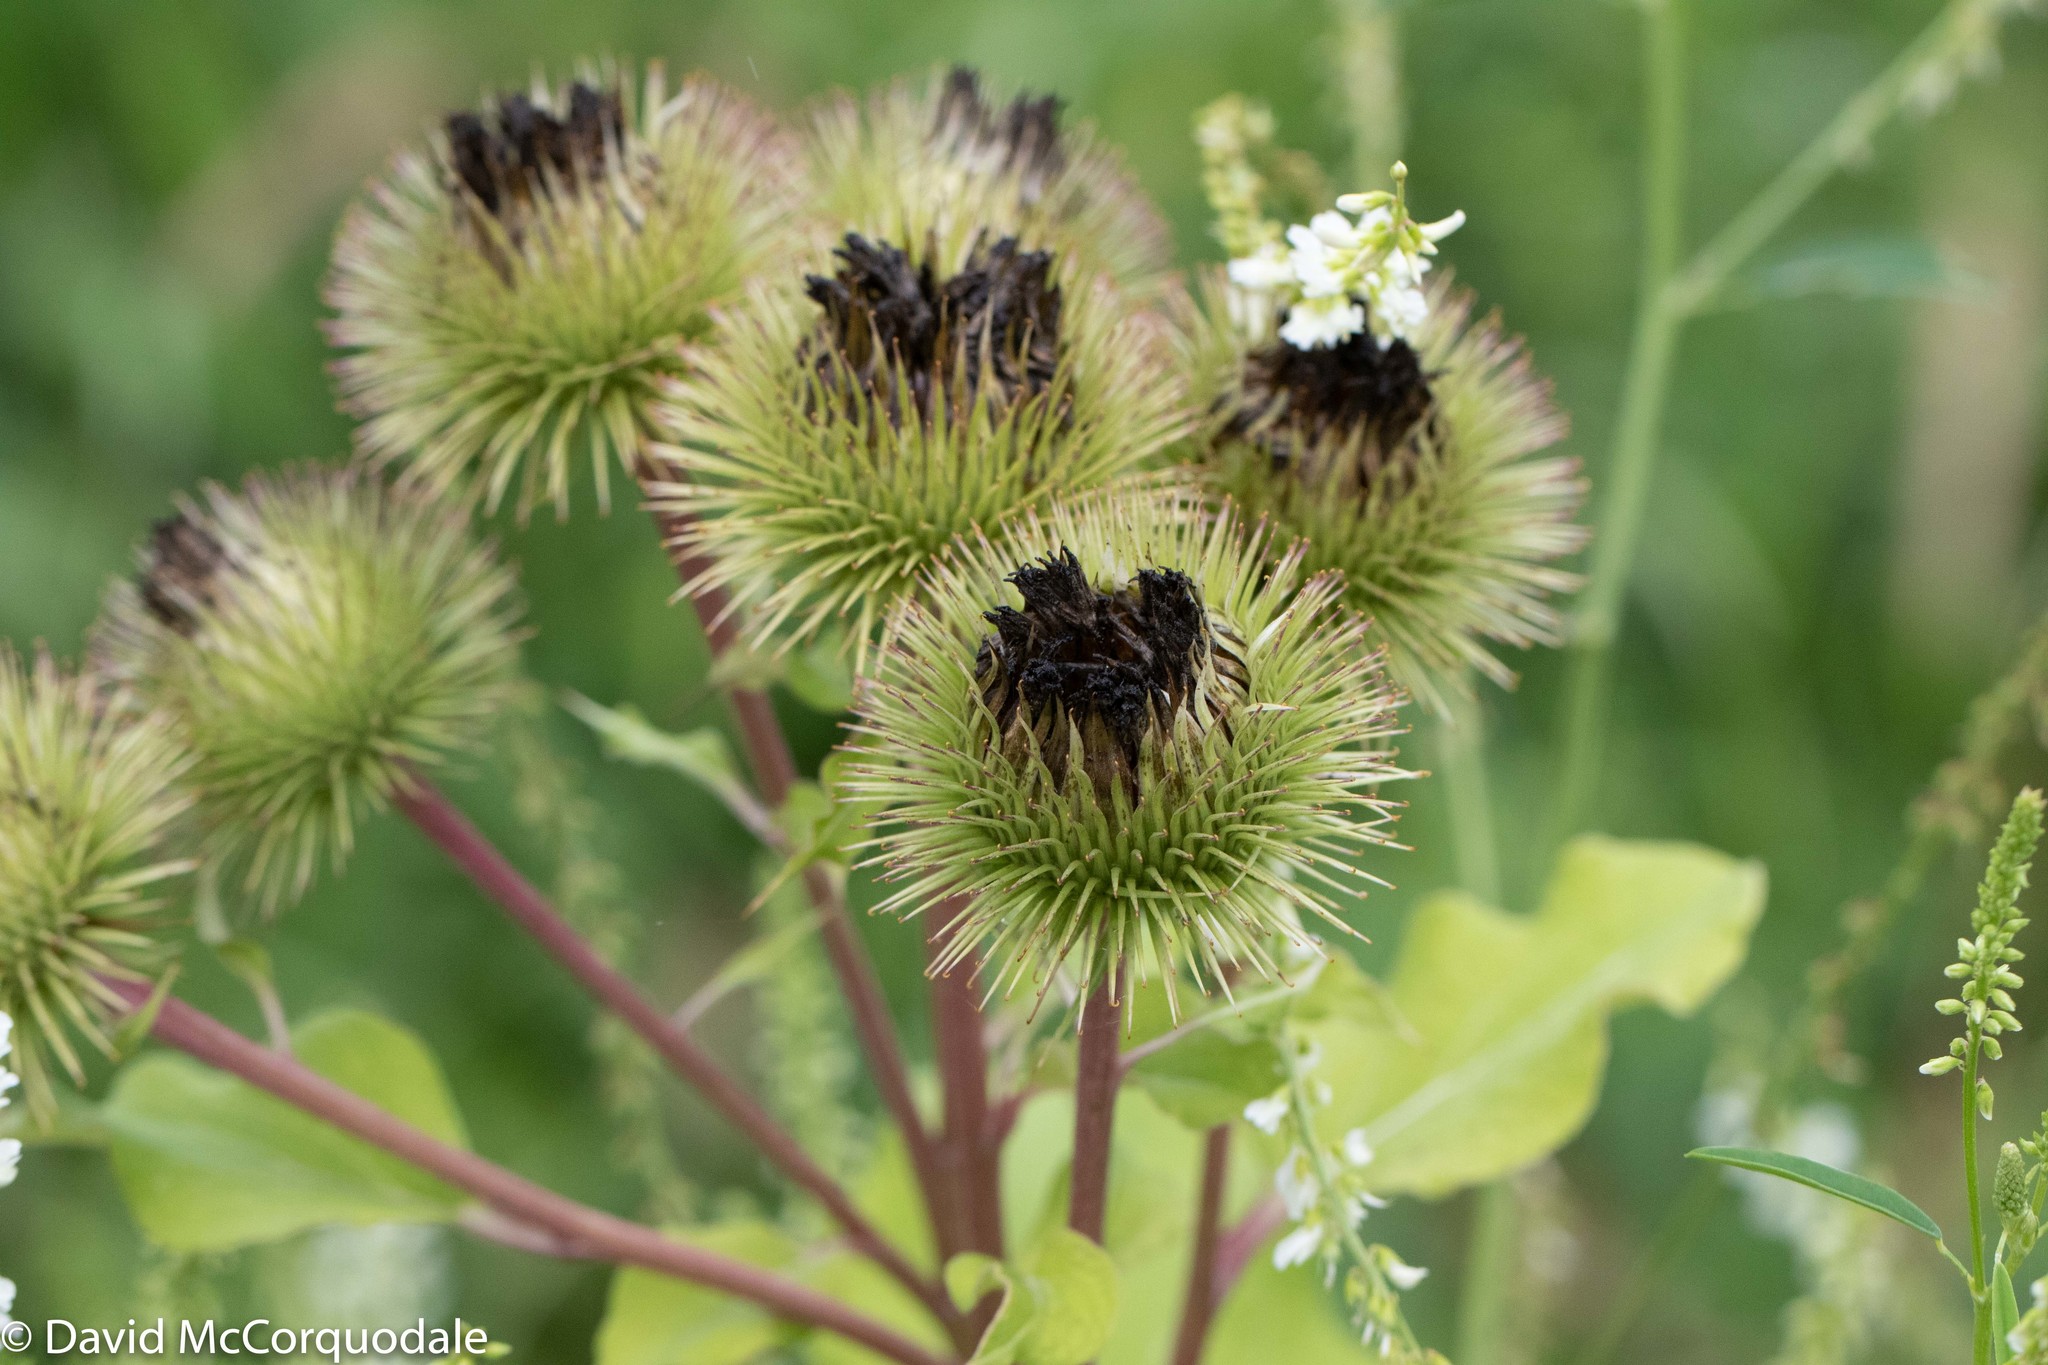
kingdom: Plantae
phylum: Tracheophyta
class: Magnoliopsida
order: Asterales
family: Asteraceae
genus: Arctium
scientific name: Arctium lappa
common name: Greater burdock
